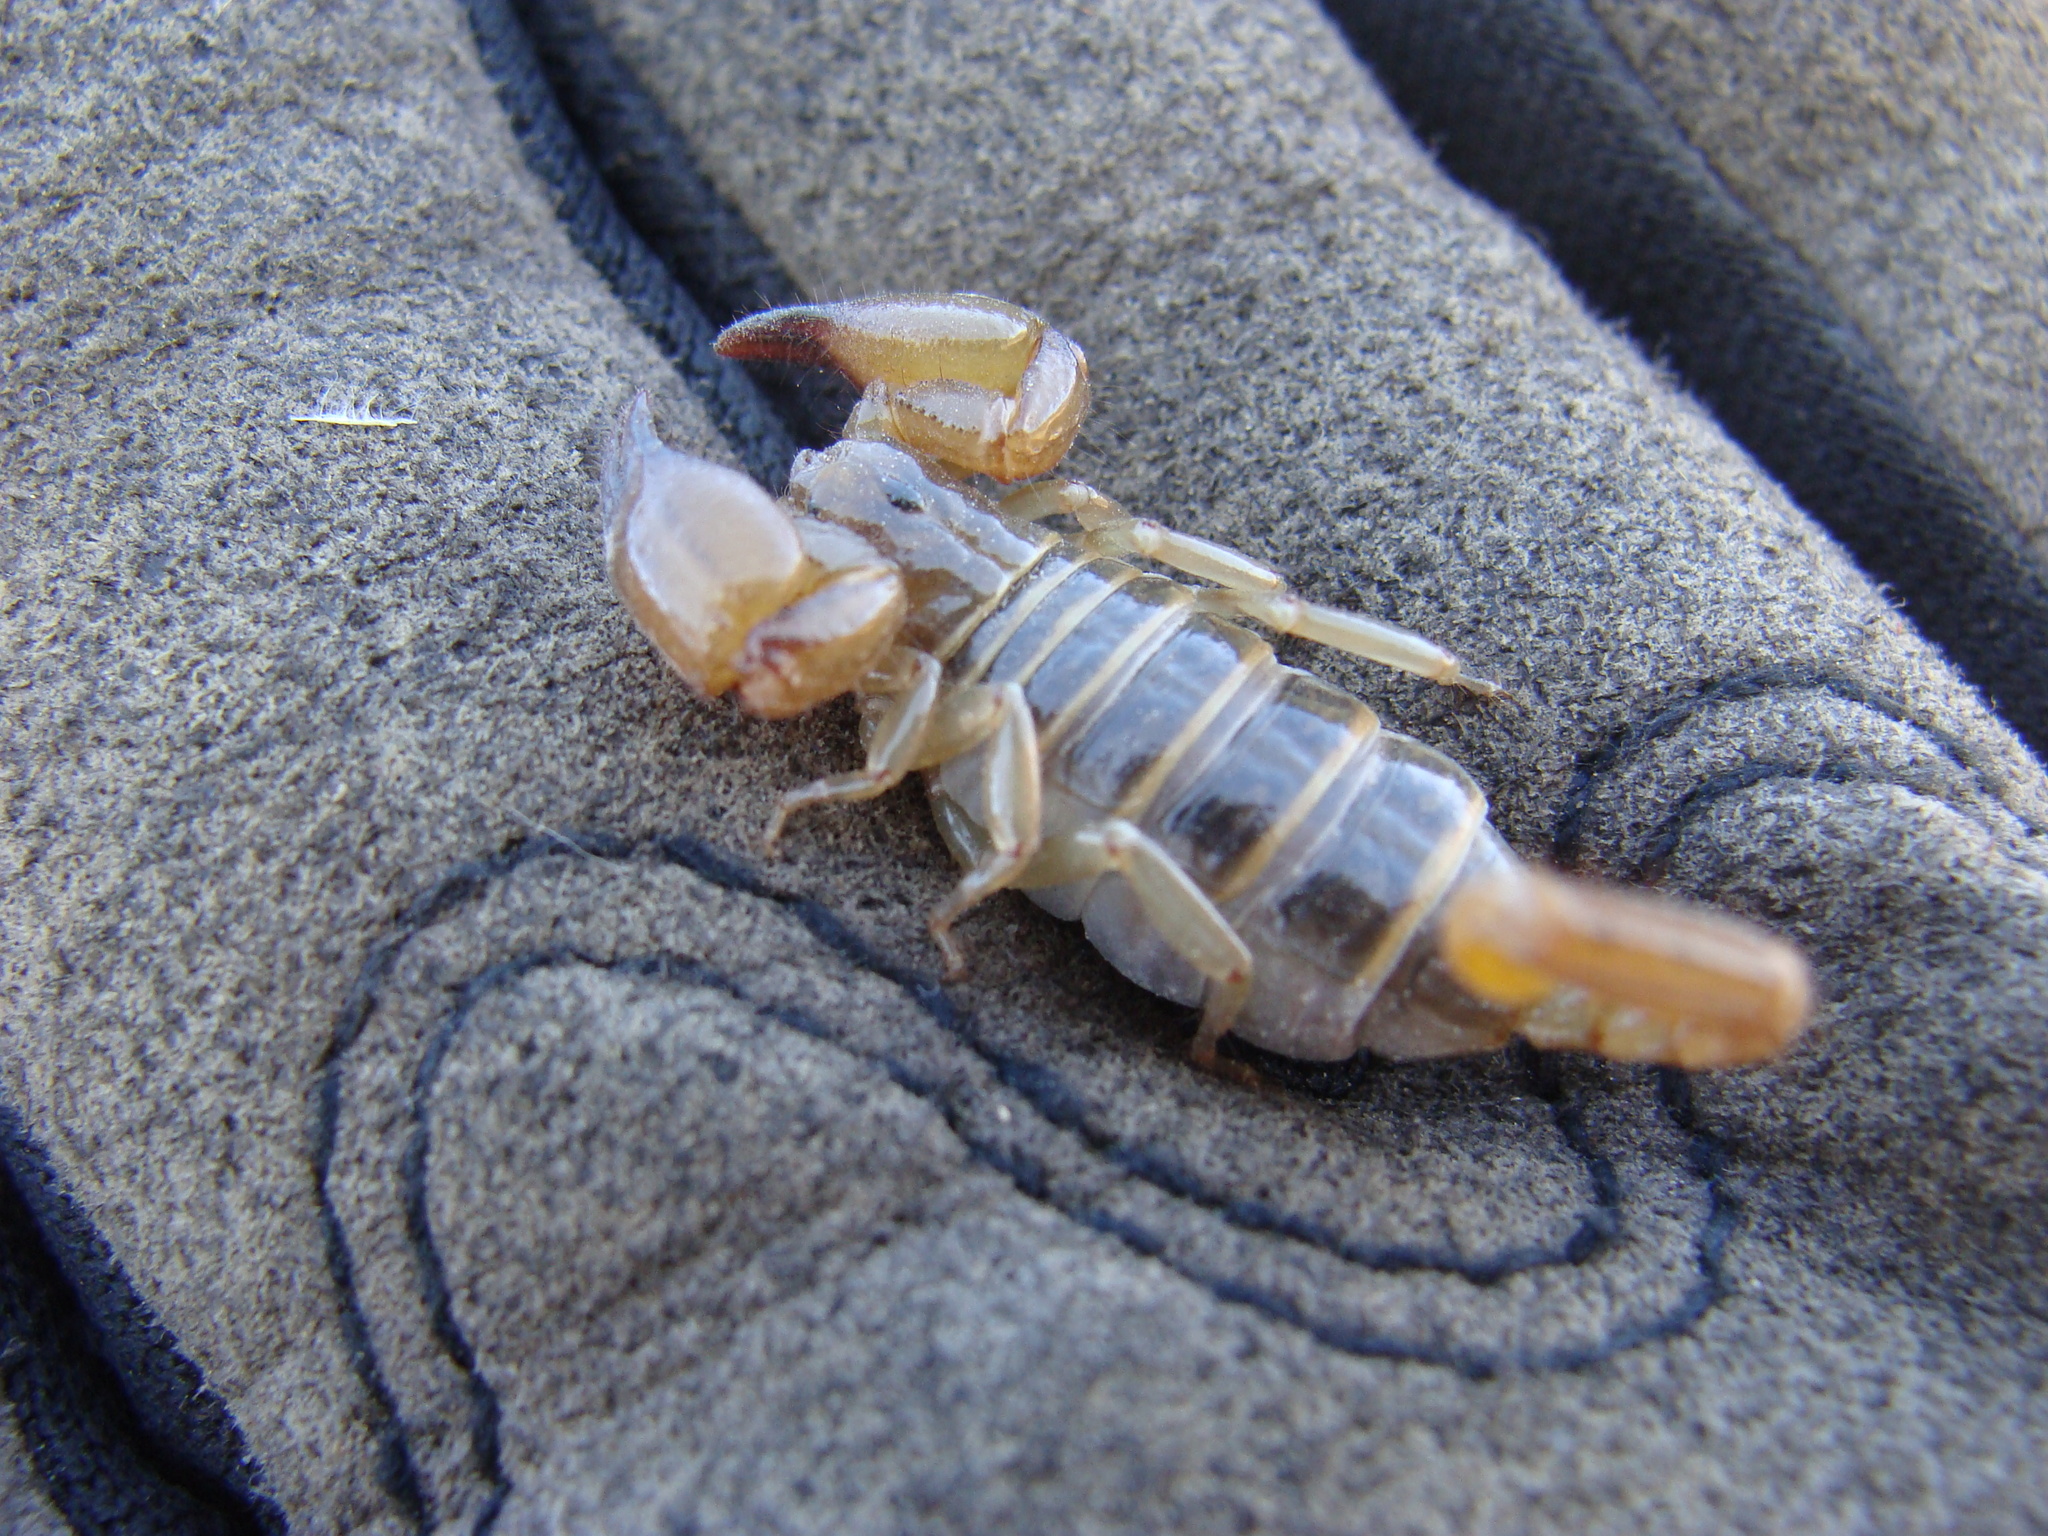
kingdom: Animalia
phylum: Arthropoda
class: Arachnida
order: Scorpiones
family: Diplocentridae
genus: Bioculus
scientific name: Bioculus caboensis
